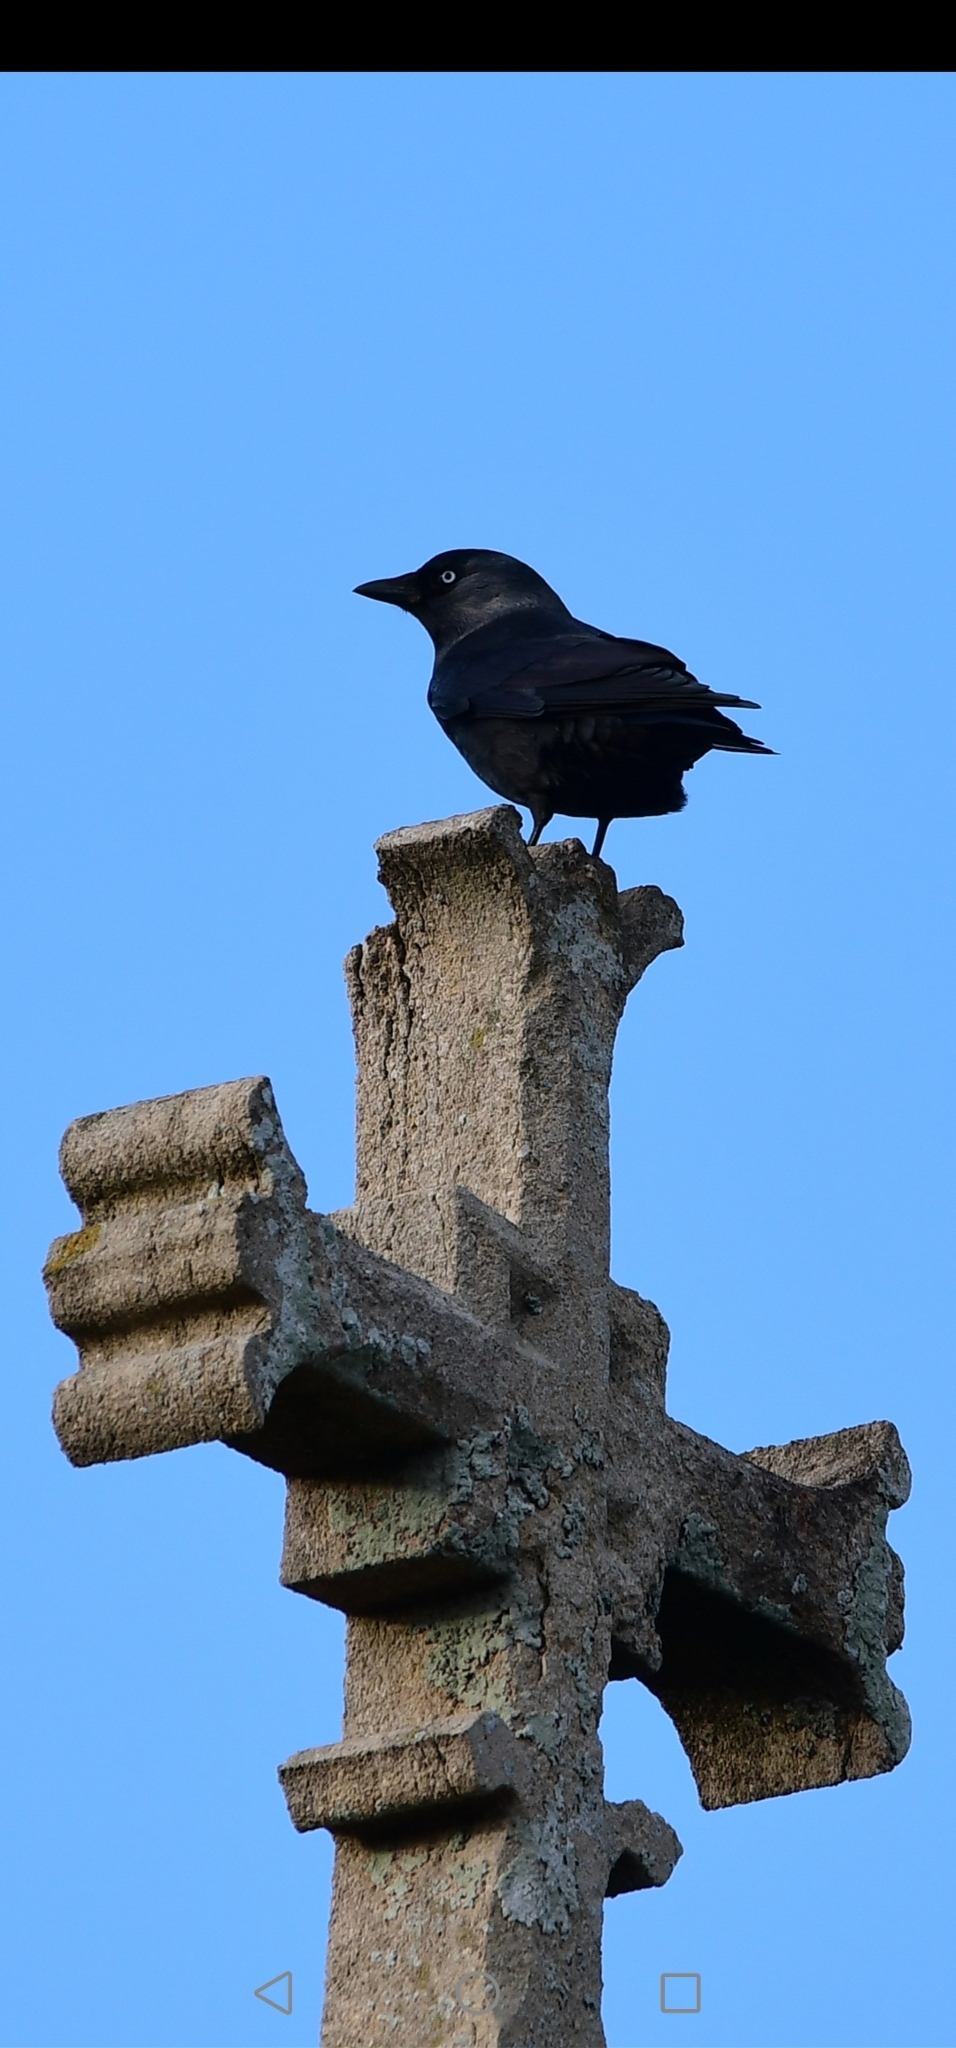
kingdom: Animalia
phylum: Chordata
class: Aves
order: Passeriformes
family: Corvidae
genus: Coloeus
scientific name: Coloeus monedula
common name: Western jackdaw
